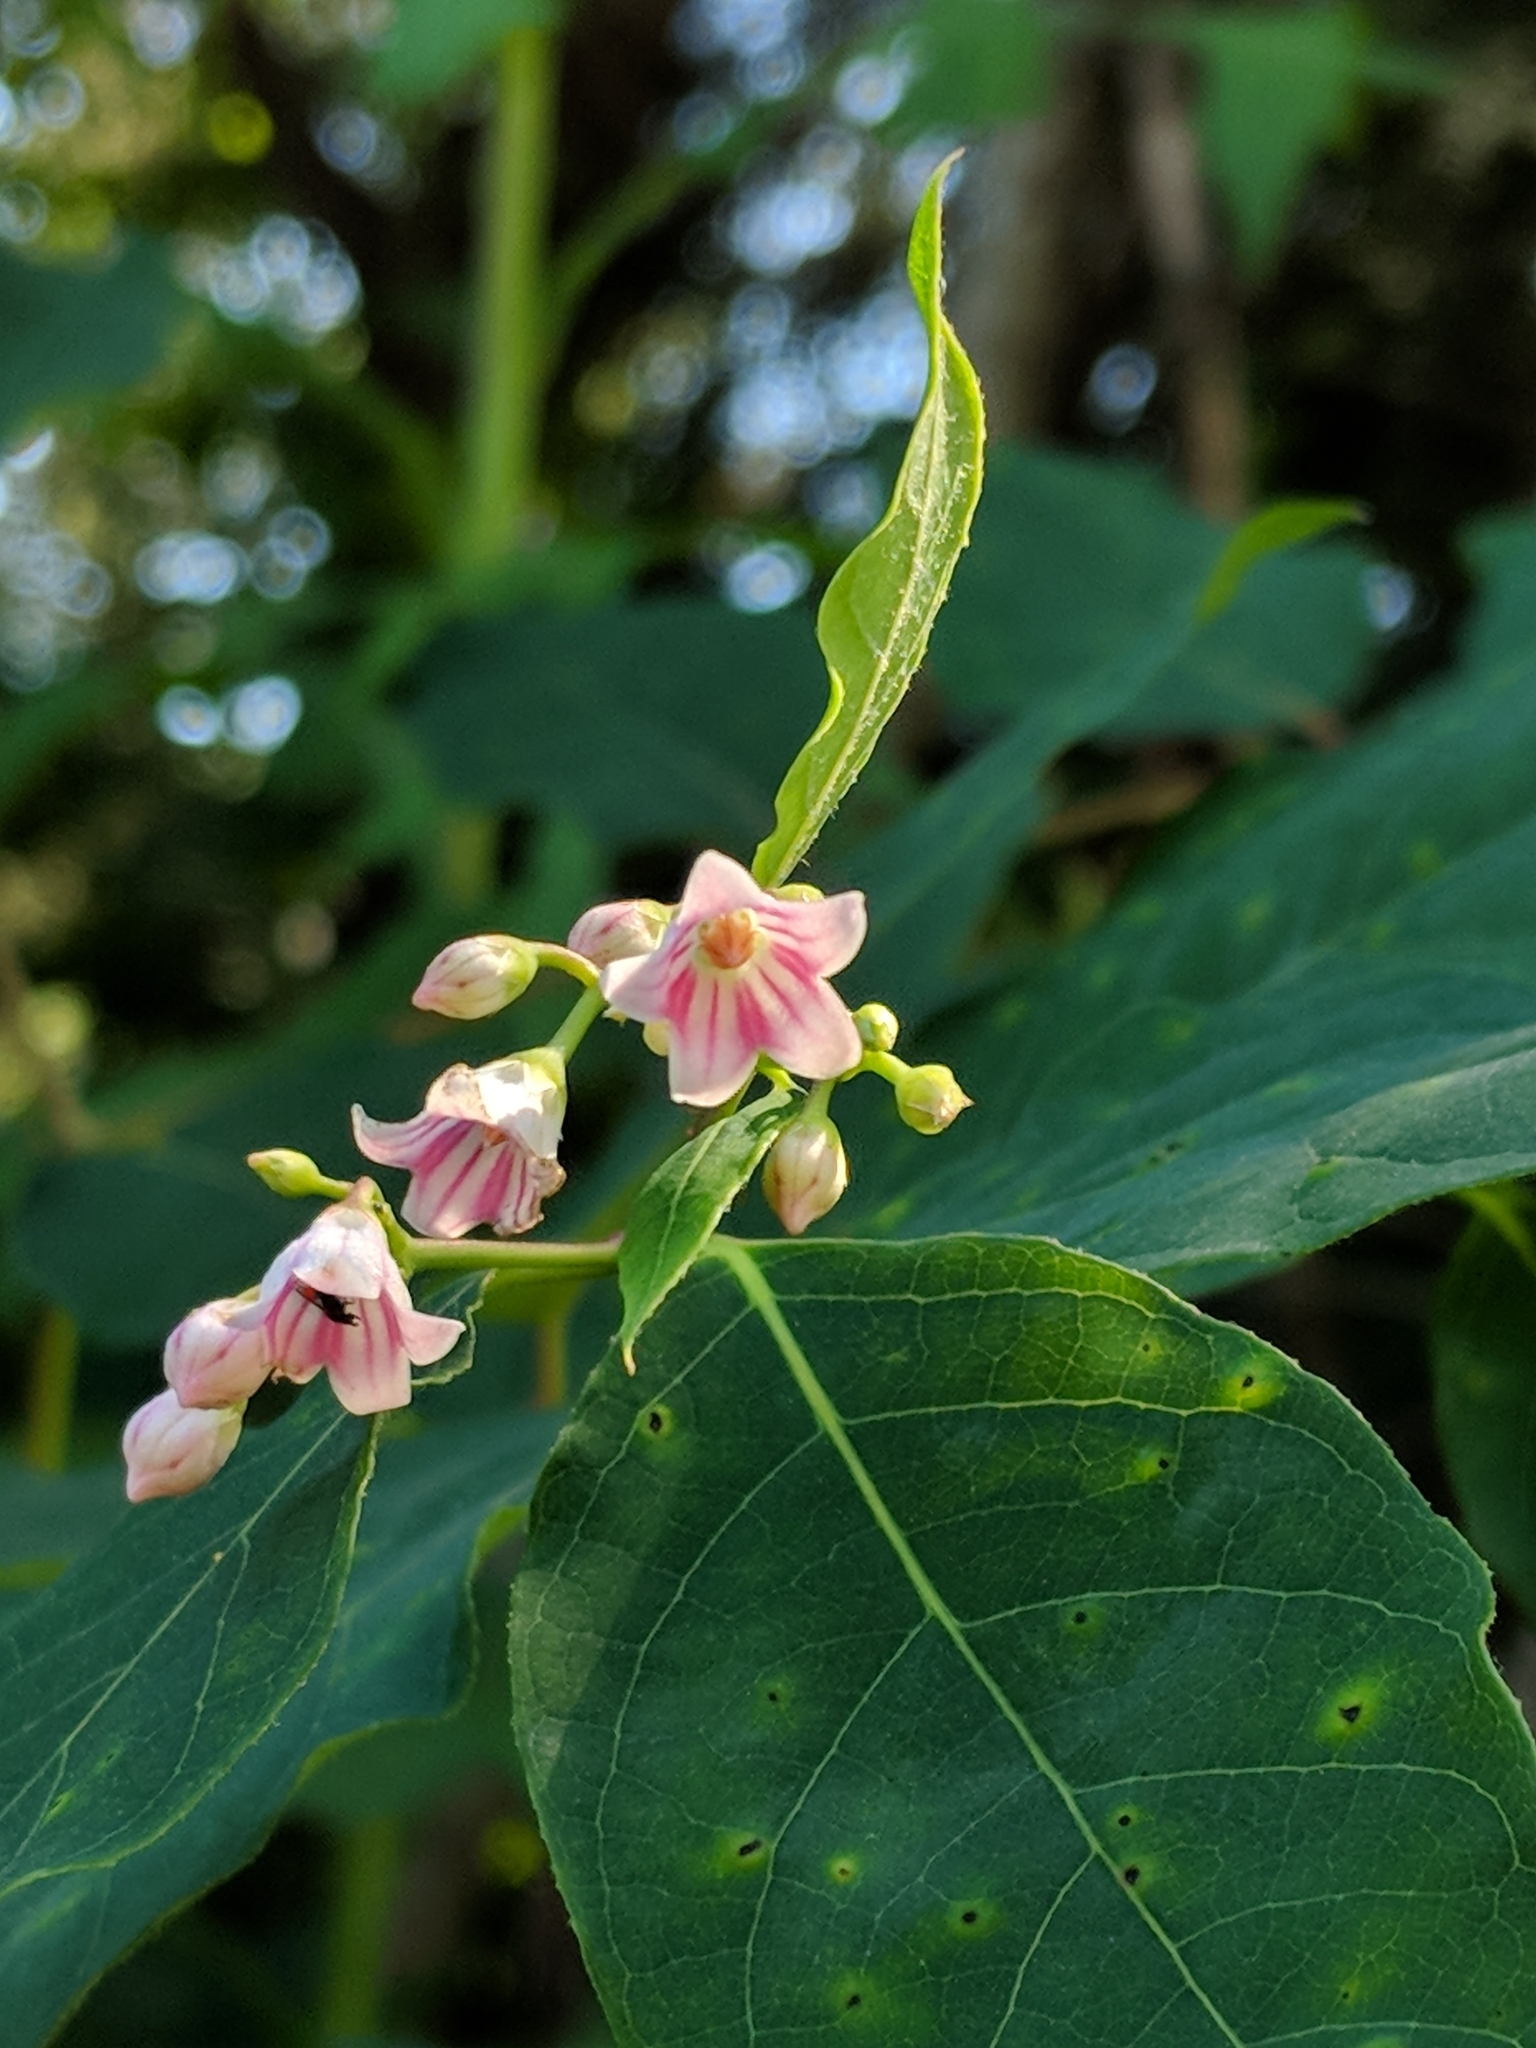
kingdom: Plantae
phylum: Tracheophyta
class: Magnoliopsida
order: Gentianales
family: Apocynaceae
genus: Apocynum
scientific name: Apocynum androsaemifolium
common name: Spreading dogbane
